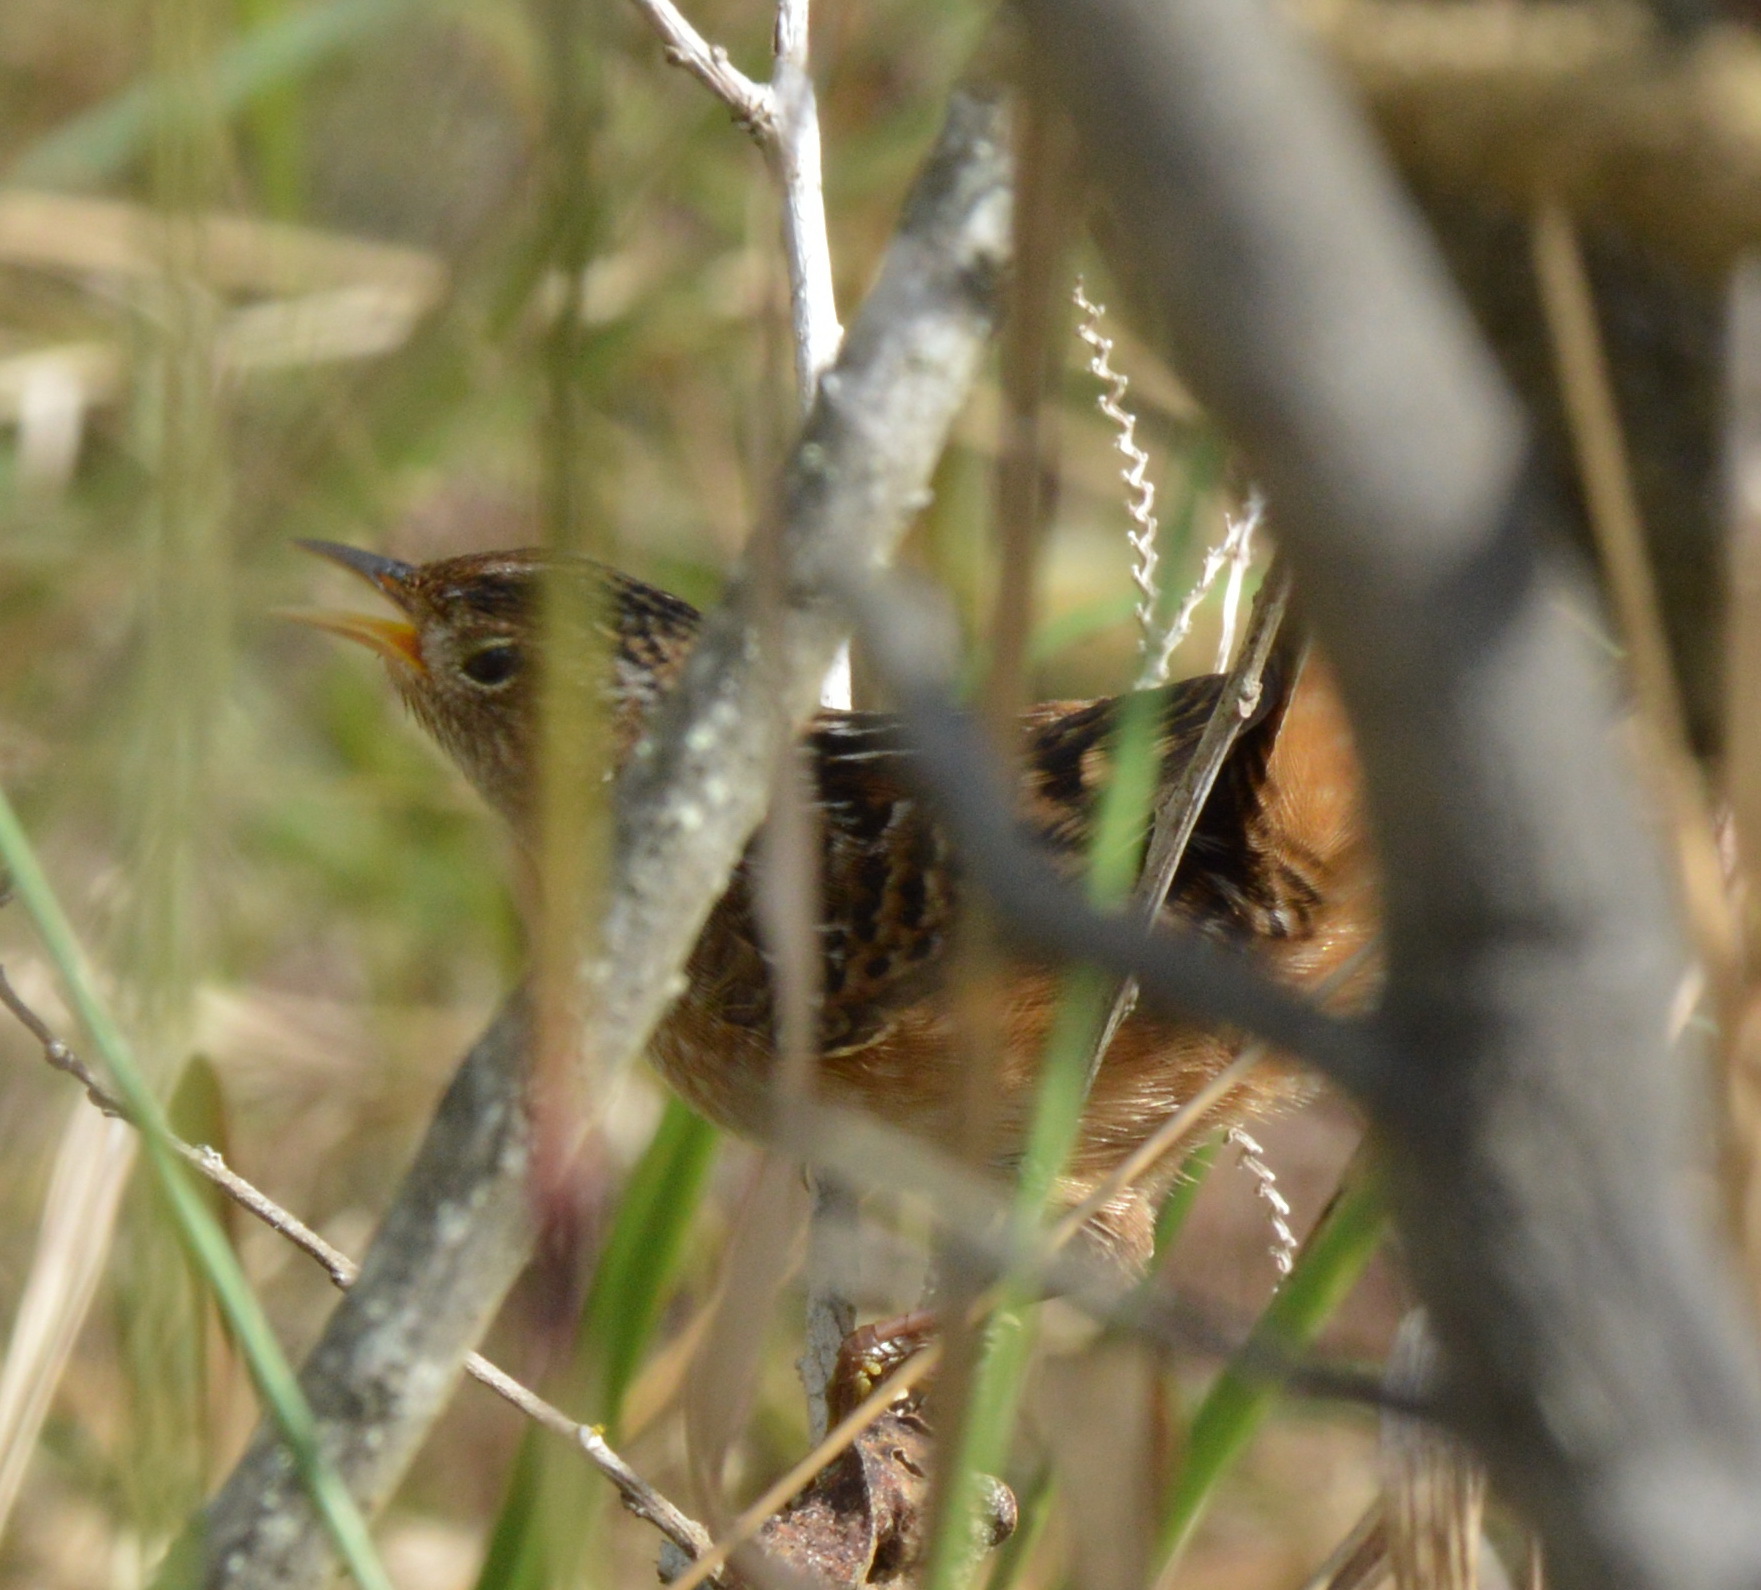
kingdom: Animalia
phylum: Chordata
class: Aves
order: Passeriformes
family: Troglodytidae
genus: Cistothorus
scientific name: Cistothorus platensis
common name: Sedge wren
